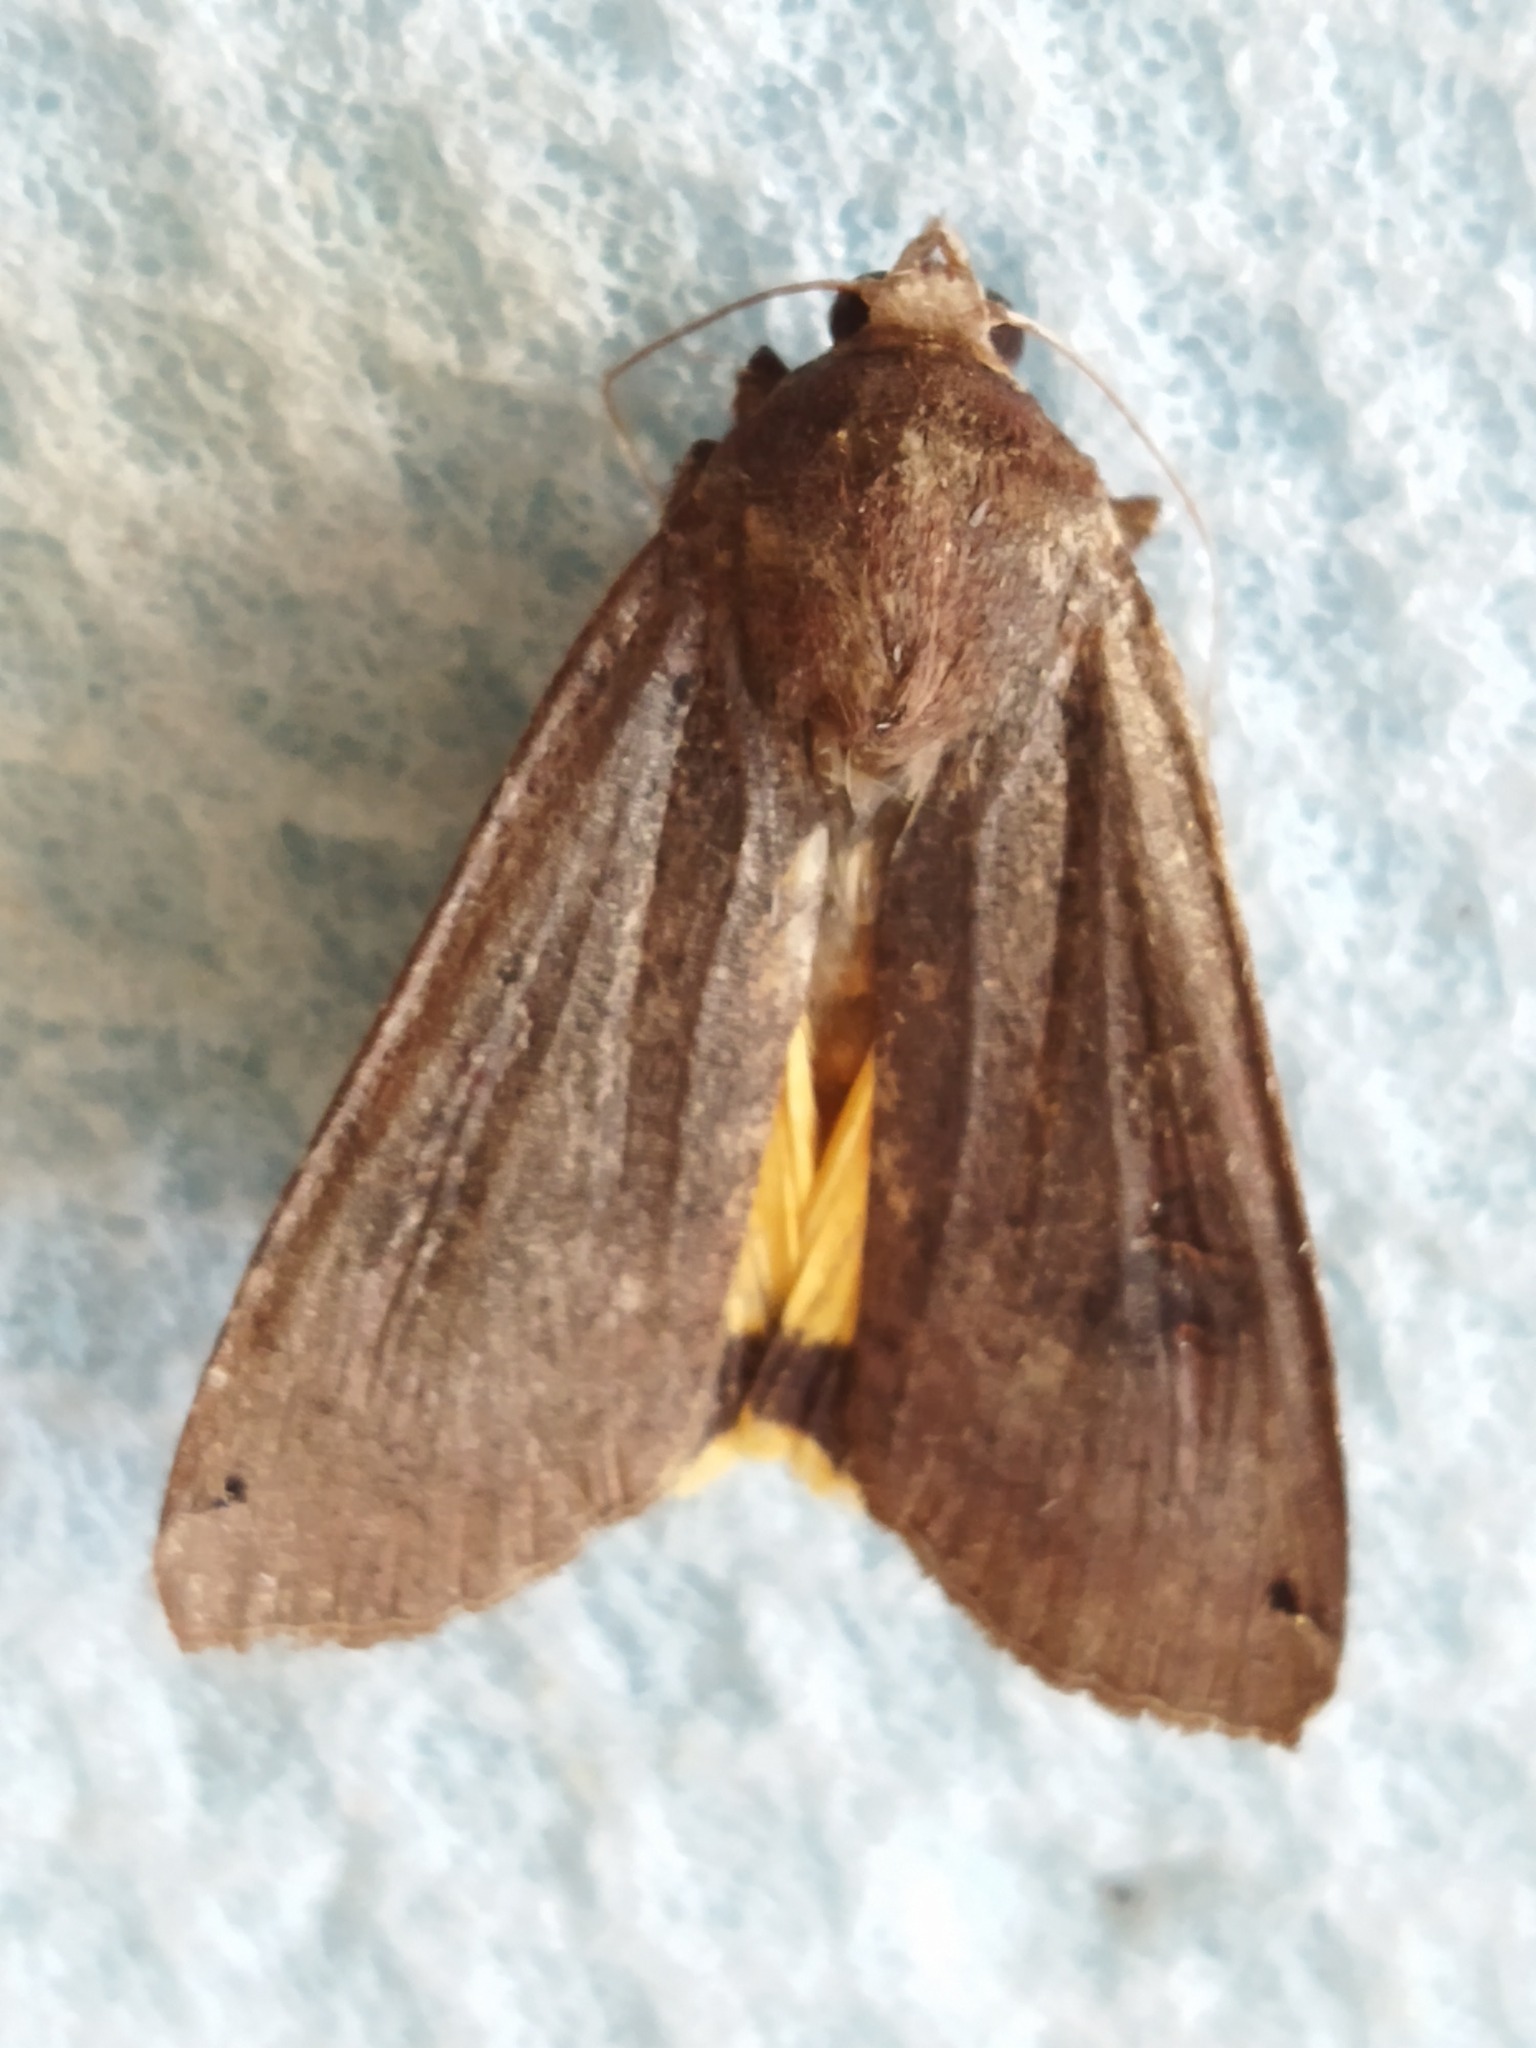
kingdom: Animalia
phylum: Arthropoda
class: Insecta
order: Lepidoptera
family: Noctuidae
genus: Noctua
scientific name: Noctua pronuba
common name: Large yellow underwing
